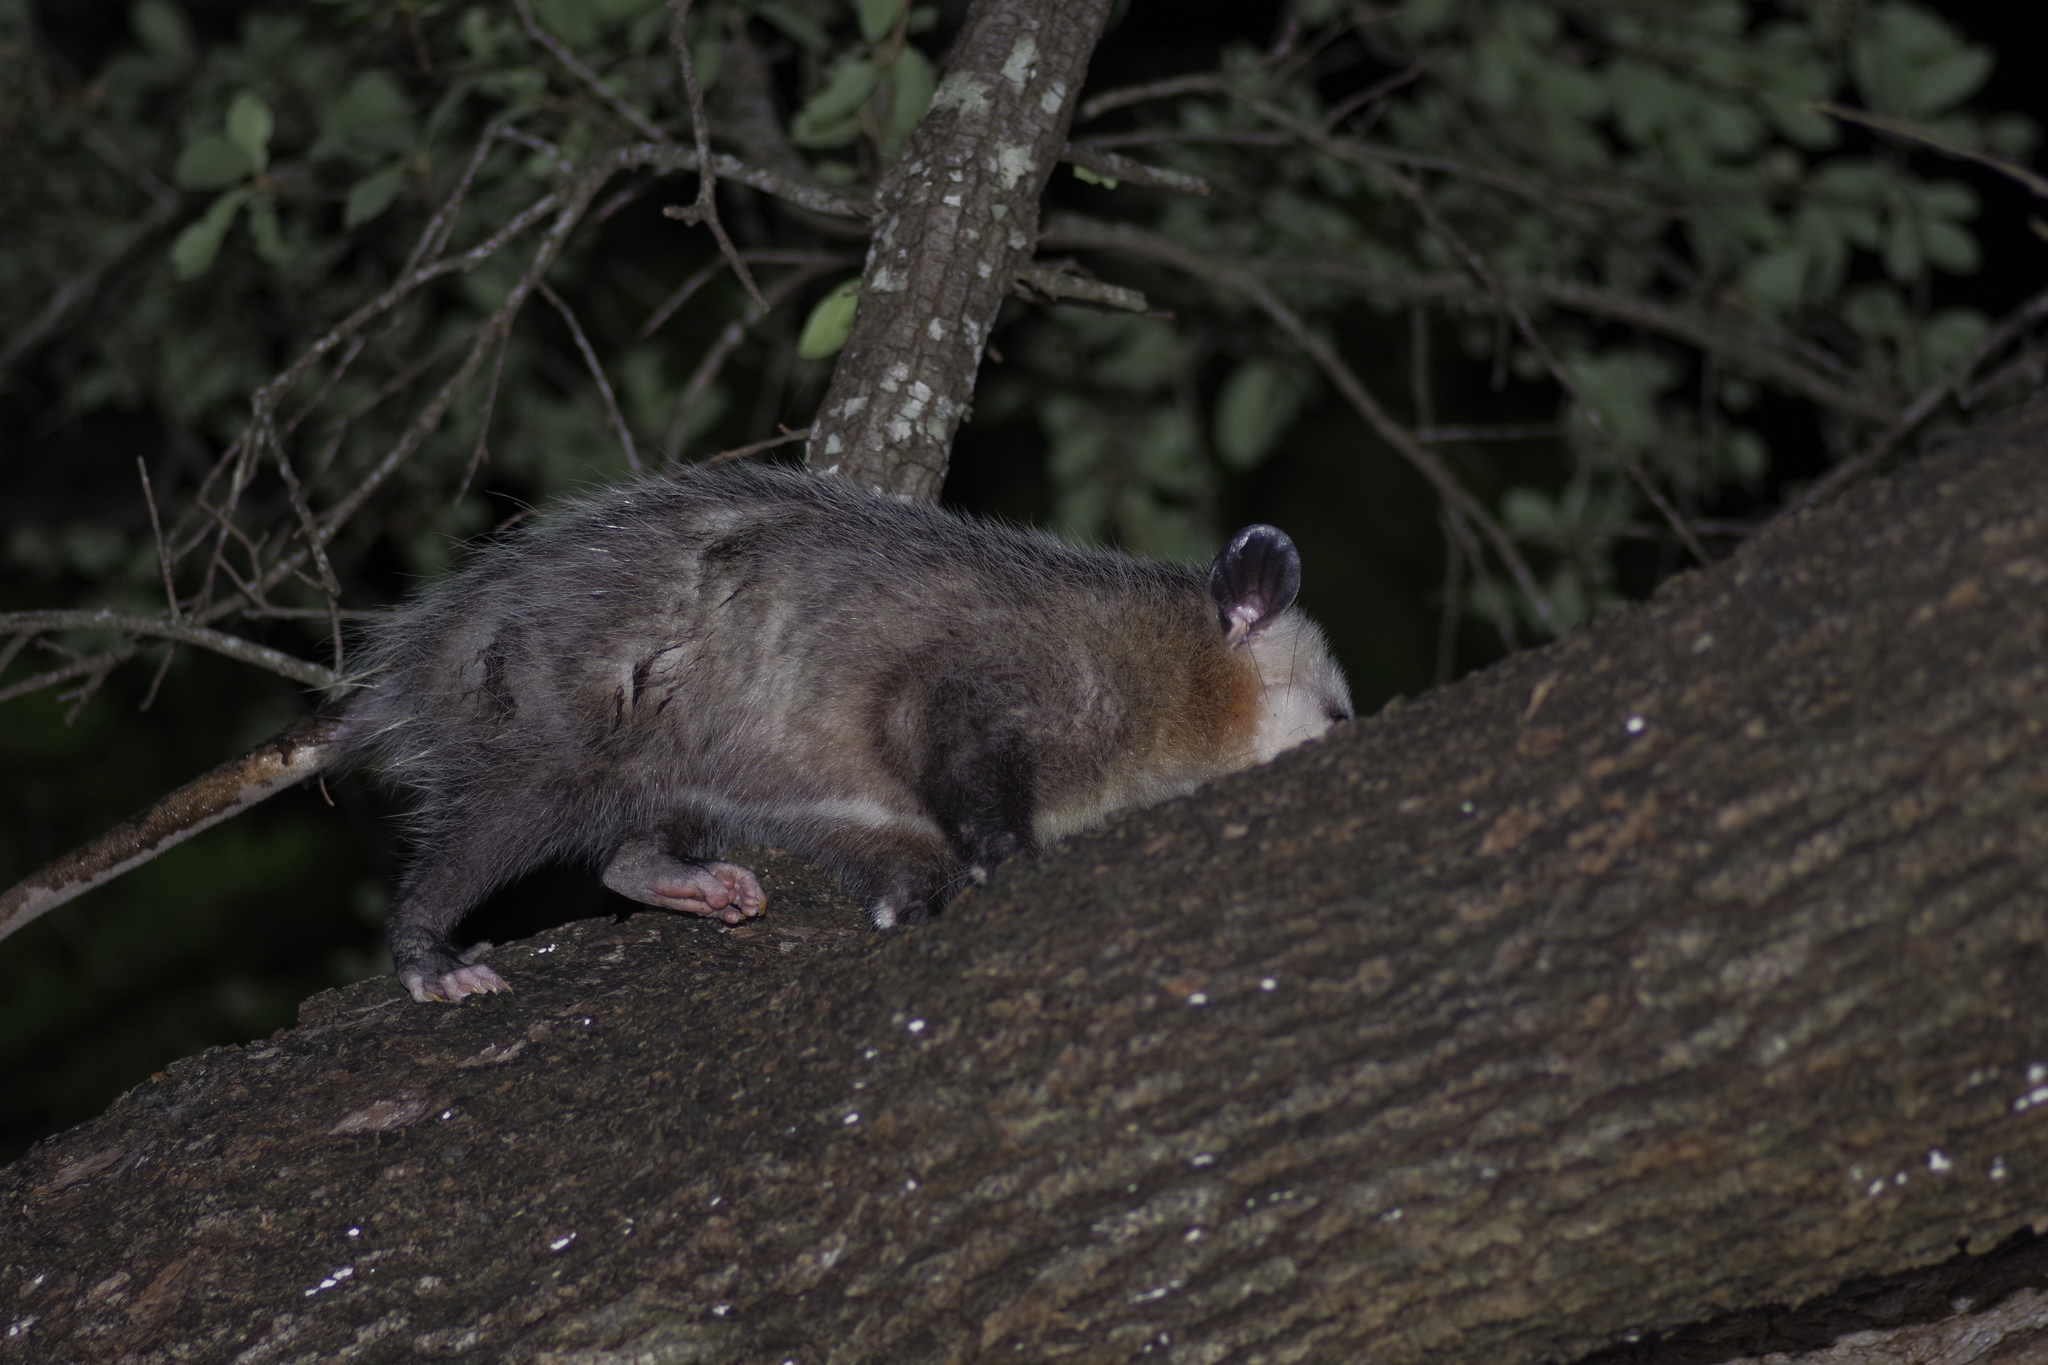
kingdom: Animalia
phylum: Chordata
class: Mammalia
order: Didelphimorphia
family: Didelphidae
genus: Didelphis
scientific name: Didelphis virginiana
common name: Virginia opossum
